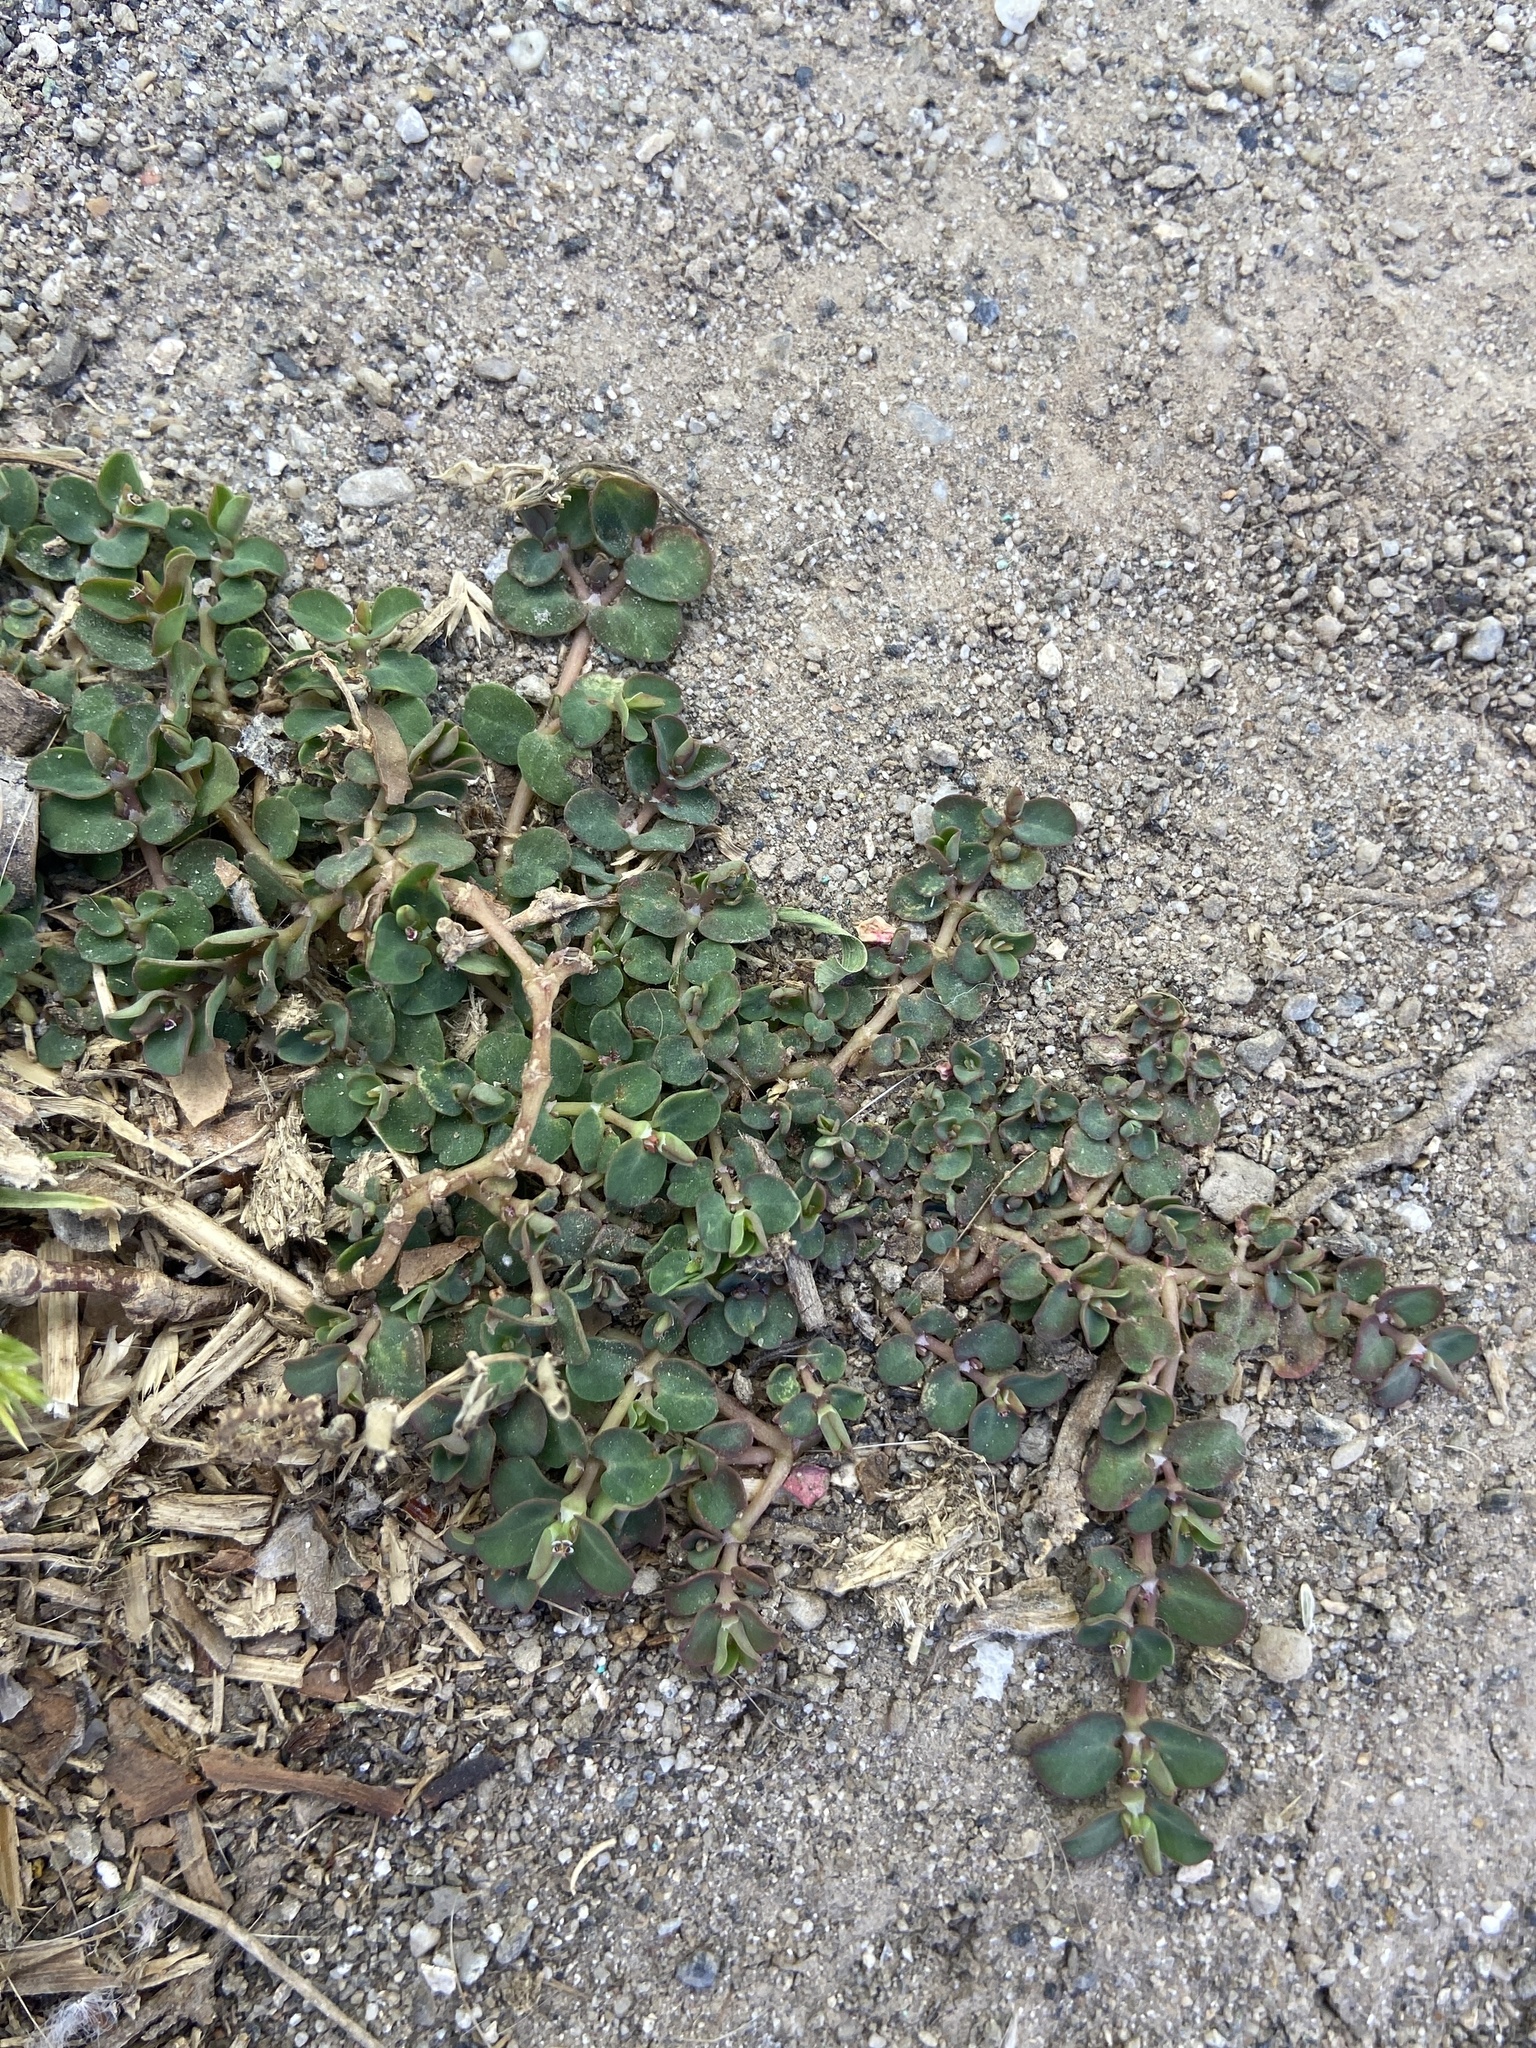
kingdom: Plantae
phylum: Tracheophyta
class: Magnoliopsida
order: Malpighiales
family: Euphorbiaceae
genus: Euphorbia
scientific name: Euphorbia serpens
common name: Matted sandmat
